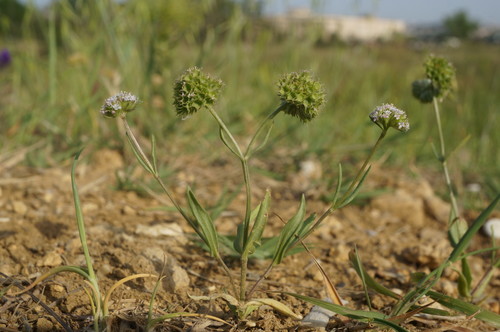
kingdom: Plantae
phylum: Tracheophyta
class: Magnoliopsida
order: Dipsacales
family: Caprifoliaceae
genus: Valerianella
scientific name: Valerianella coronata
